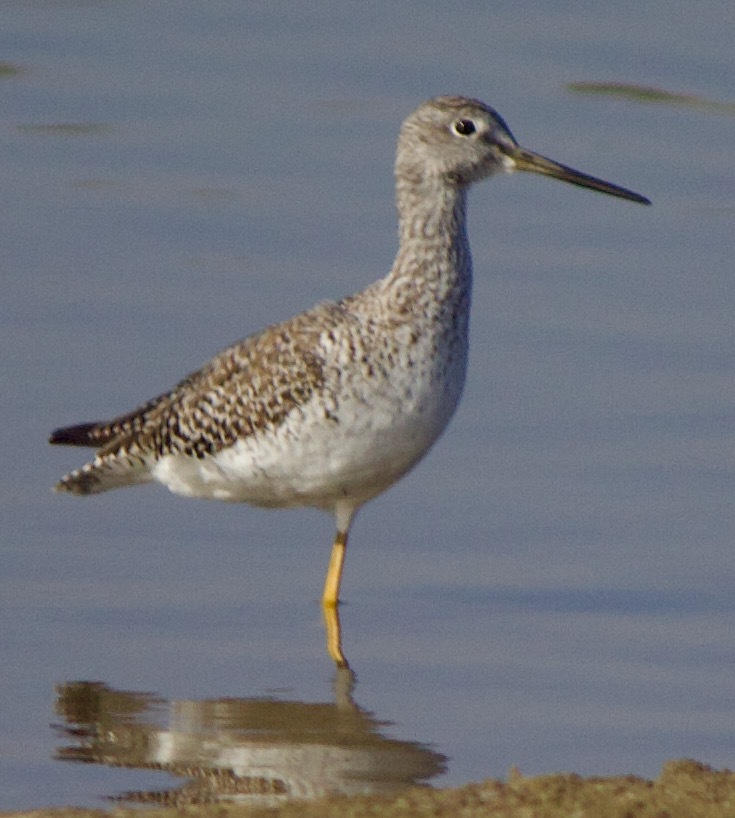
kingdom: Animalia
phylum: Chordata
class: Aves
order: Charadriiformes
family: Scolopacidae
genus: Tringa
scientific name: Tringa melanoleuca
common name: Greater yellowlegs
